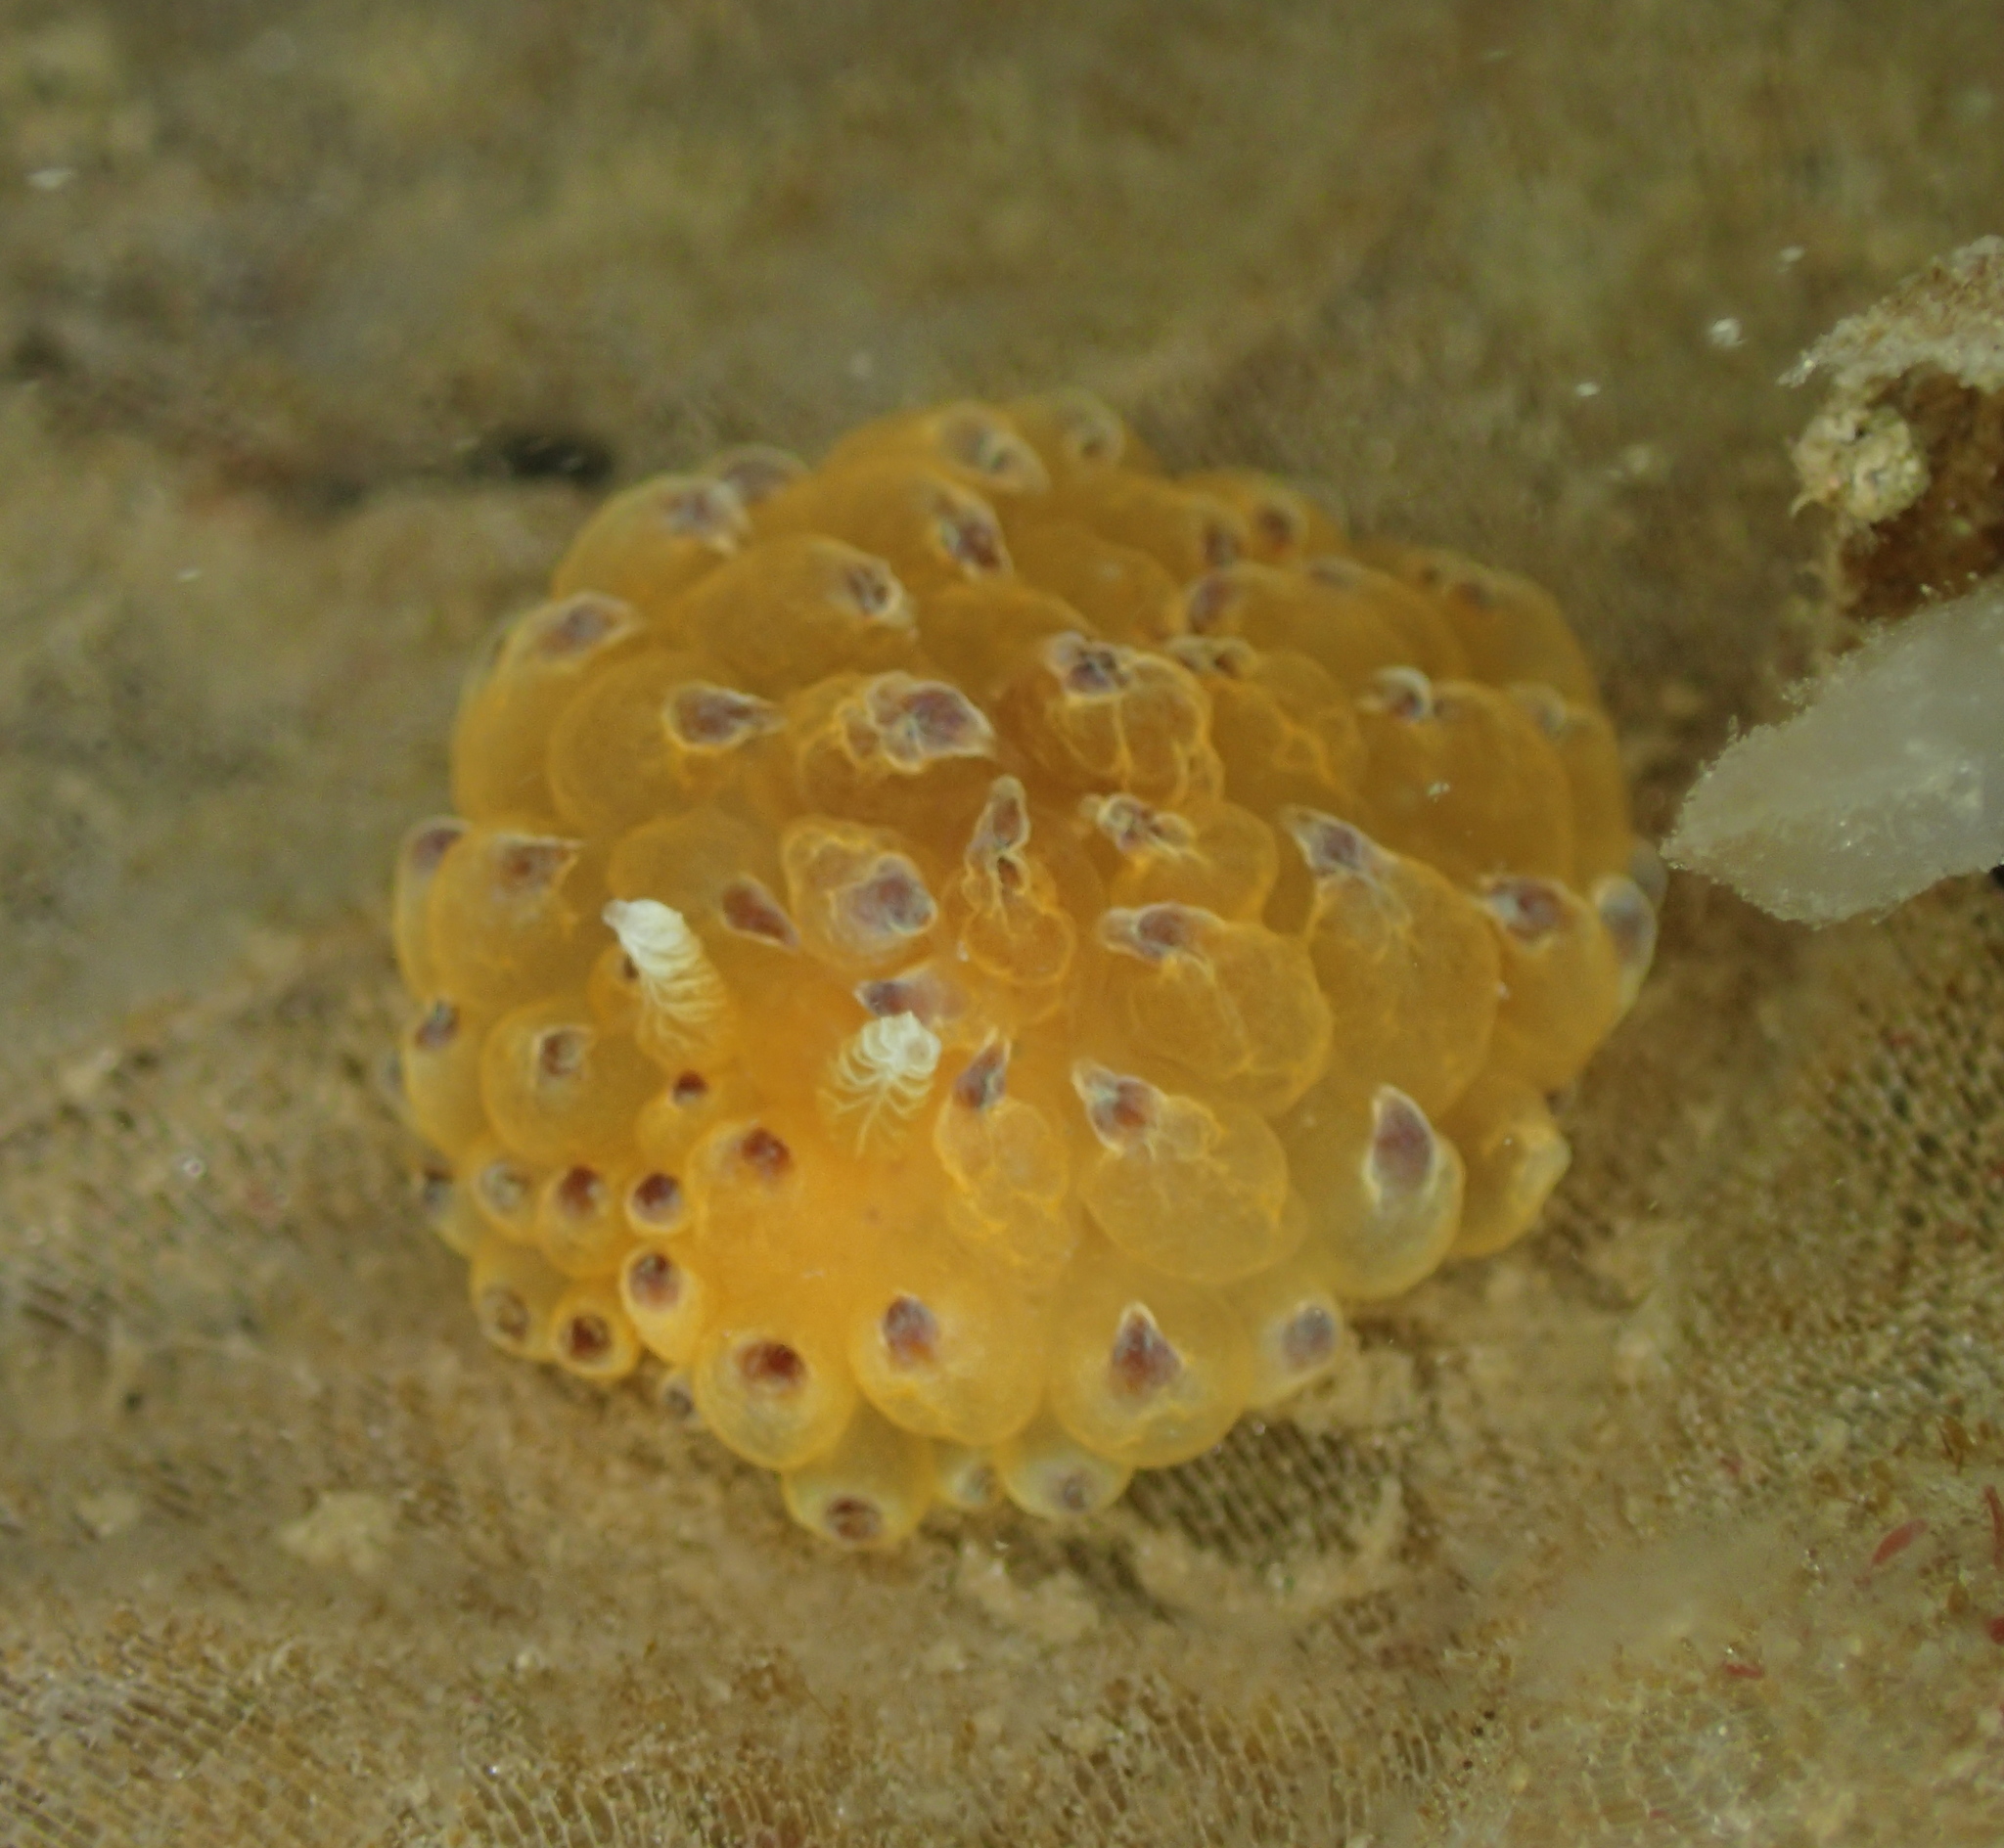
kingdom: Animalia
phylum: Mollusca
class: Gastropoda
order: Nudibranchia
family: Janolidae
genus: Galeojanolus
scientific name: Galeojanolus ionnae
